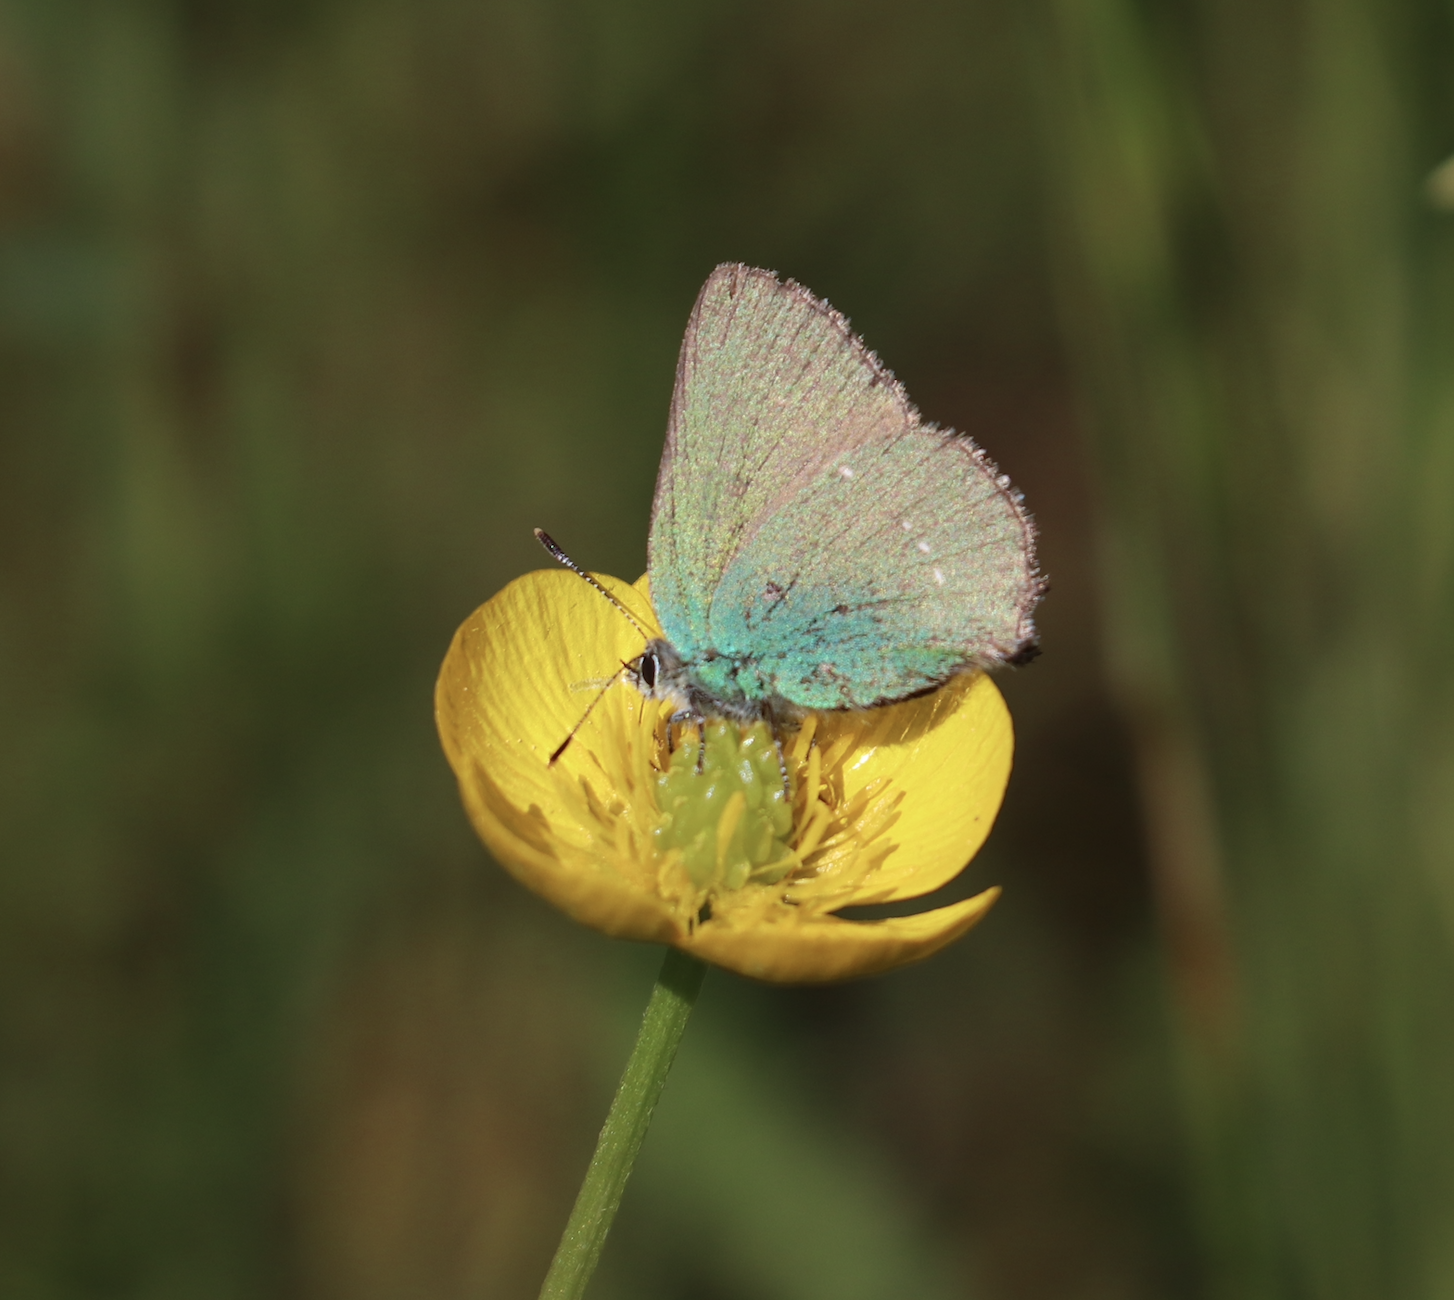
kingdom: Animalia
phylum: Arthropoda
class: Insecta
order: Lepidoptera
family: Lycaenidae
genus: Callophrys
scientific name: Callophrys rubi
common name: Green hairstreak
